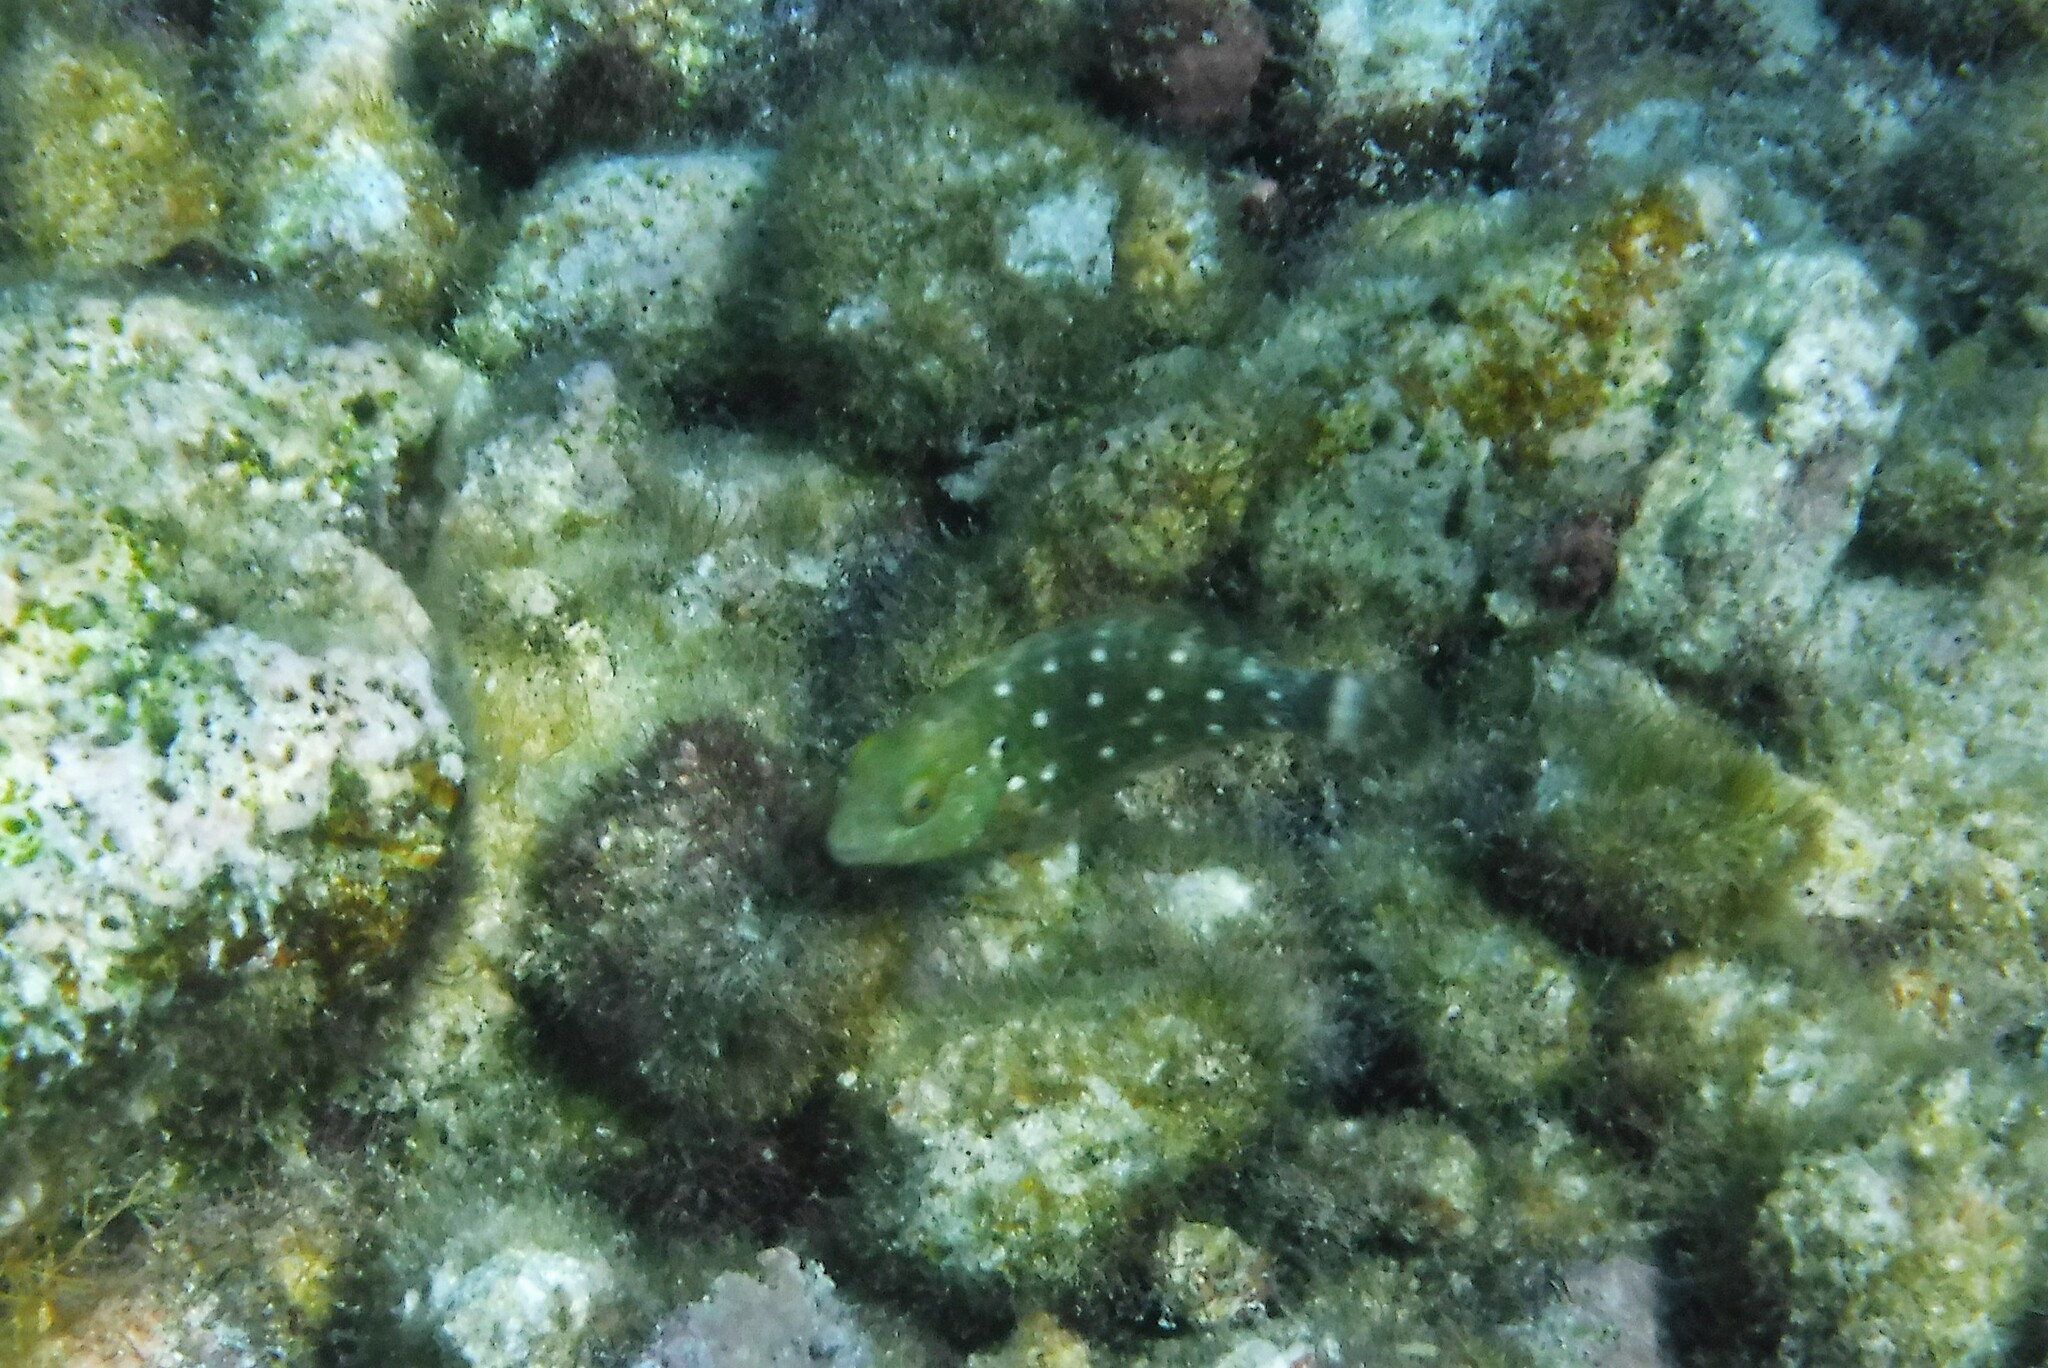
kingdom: Animalia
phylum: Chordata
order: Perciformes
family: Scaridae
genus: Sparisoma
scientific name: Sparisoma viride
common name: Stoplight parrotfish
